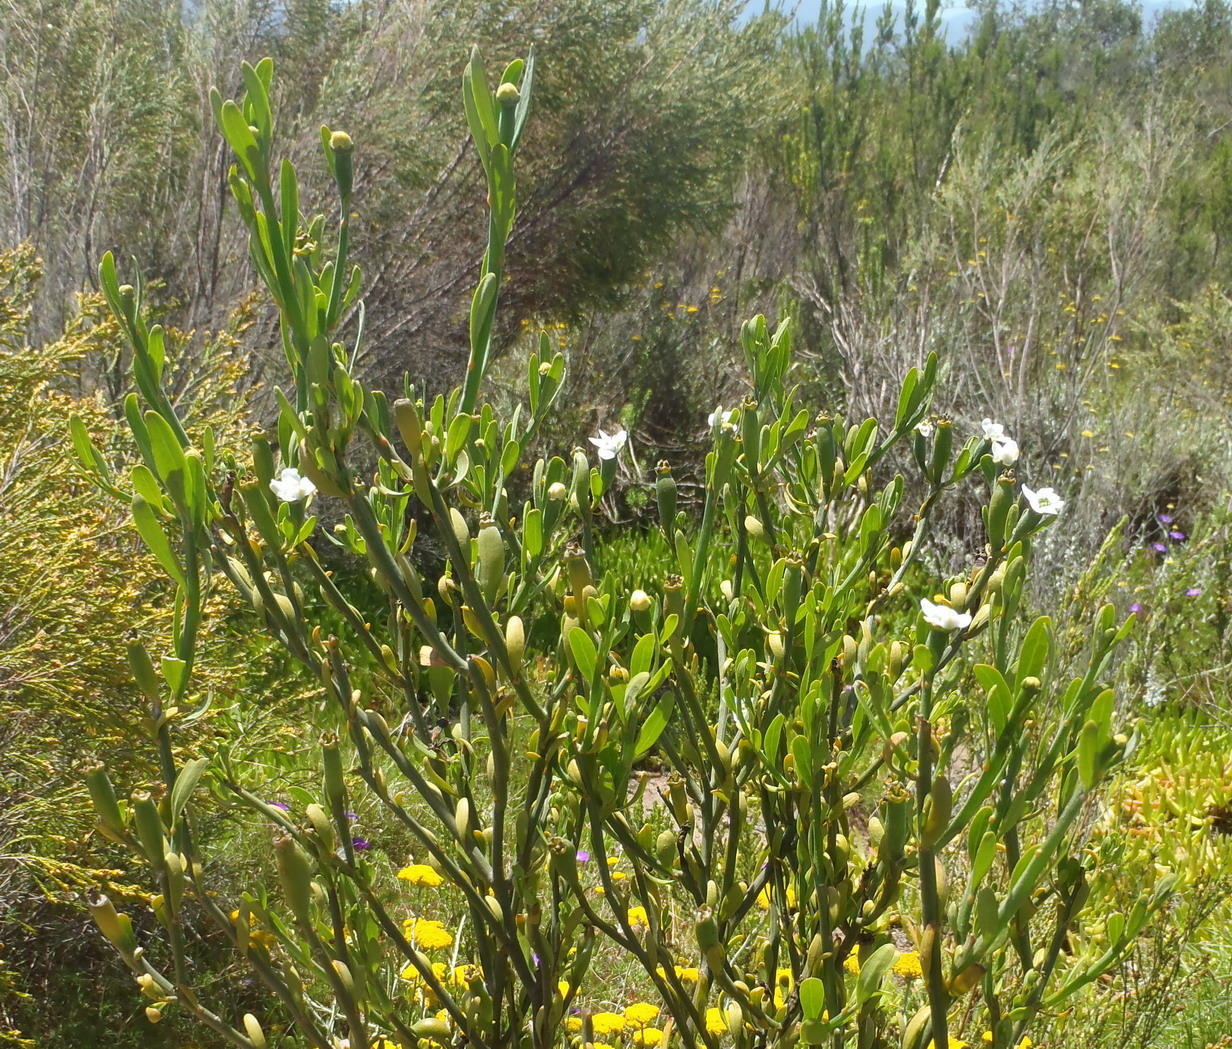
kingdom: Plantae
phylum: Tracheophyta
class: Magnoliopsida
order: Solanales
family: Montiniaceae
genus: Montinia
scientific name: Montinia caryophyllacea
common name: Wild clove-bush
